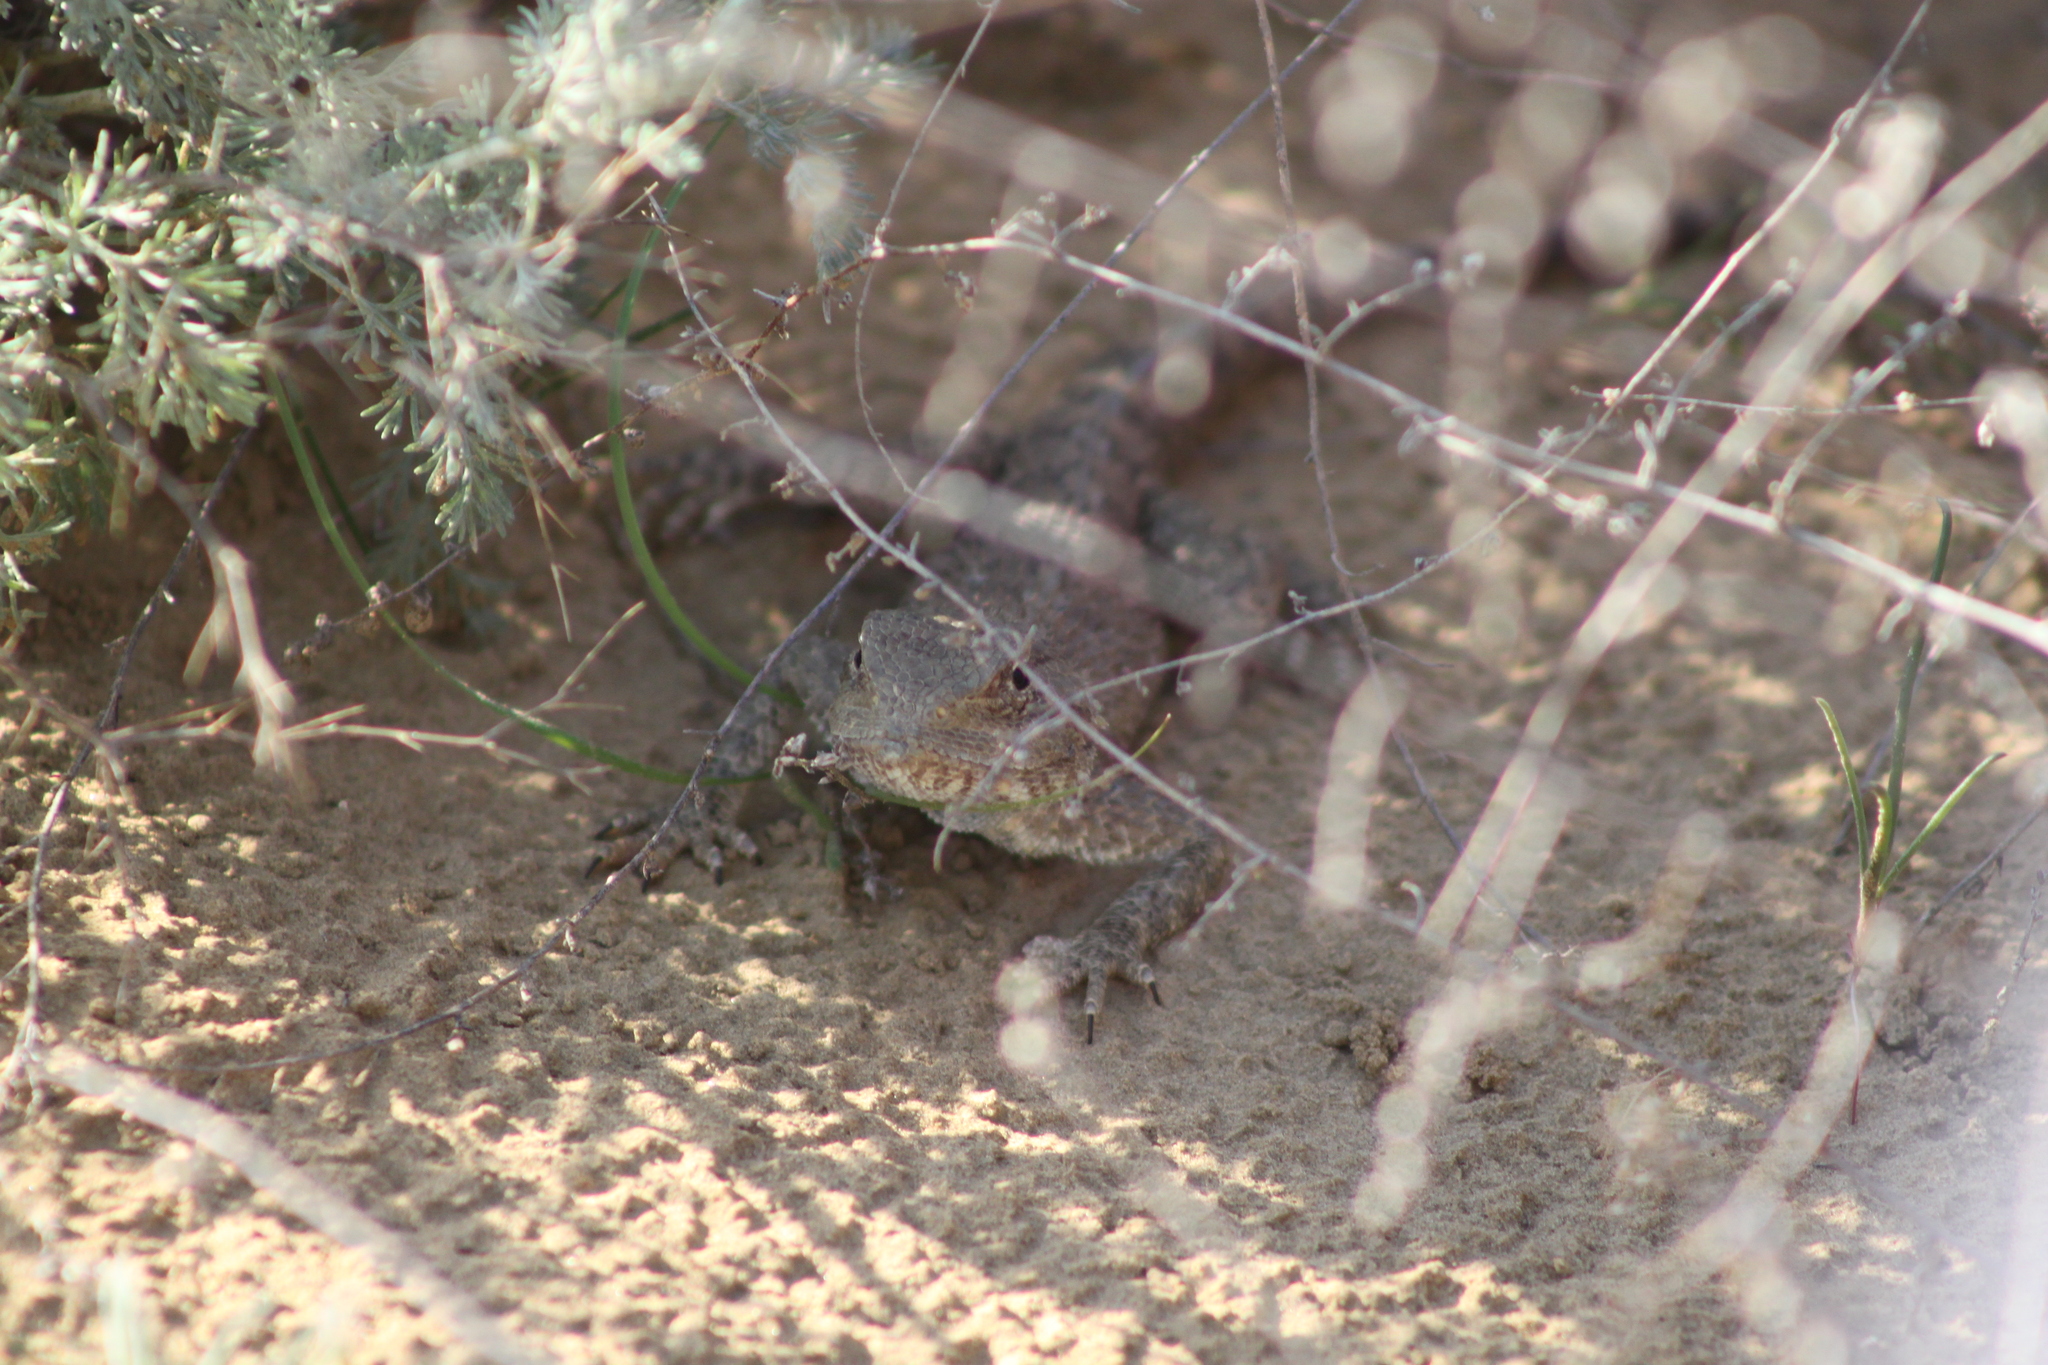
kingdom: Animalia
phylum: Chordata
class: Squamata
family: Agamidae
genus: Trapelus
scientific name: Trapelus sanguinolentus
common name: Steppe agama
